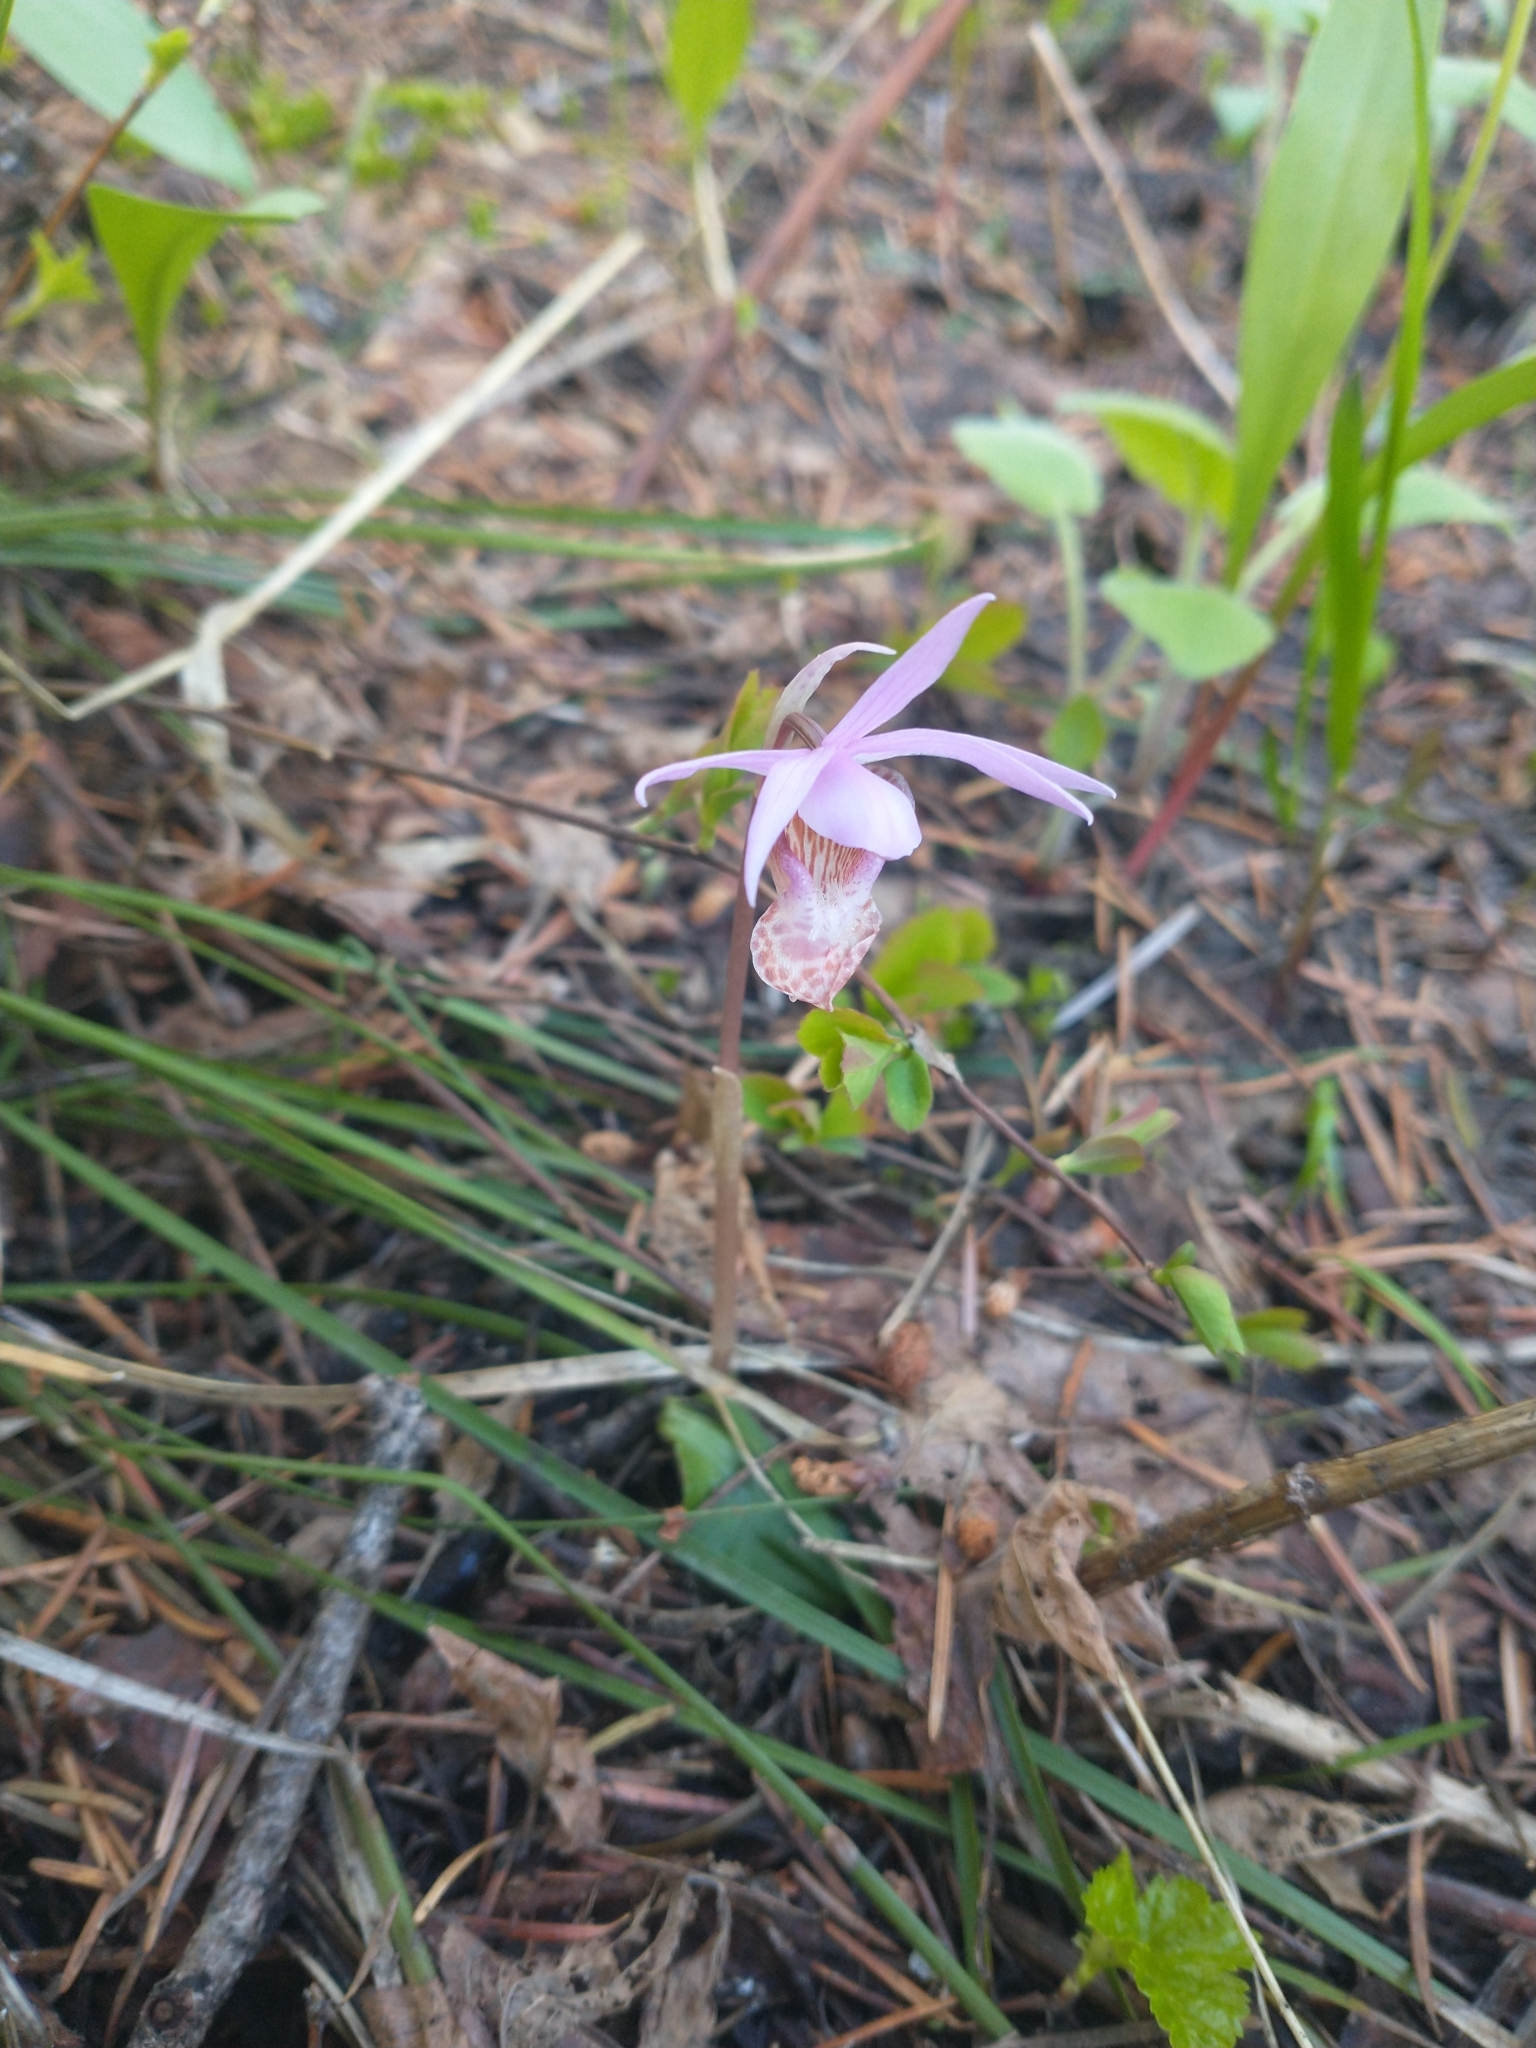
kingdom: Plantae
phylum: Tracheophyta
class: Liliopsida
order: Asparagales
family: Orchidaceae
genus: Calypso
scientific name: Calypso bulbosa
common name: Calypso
